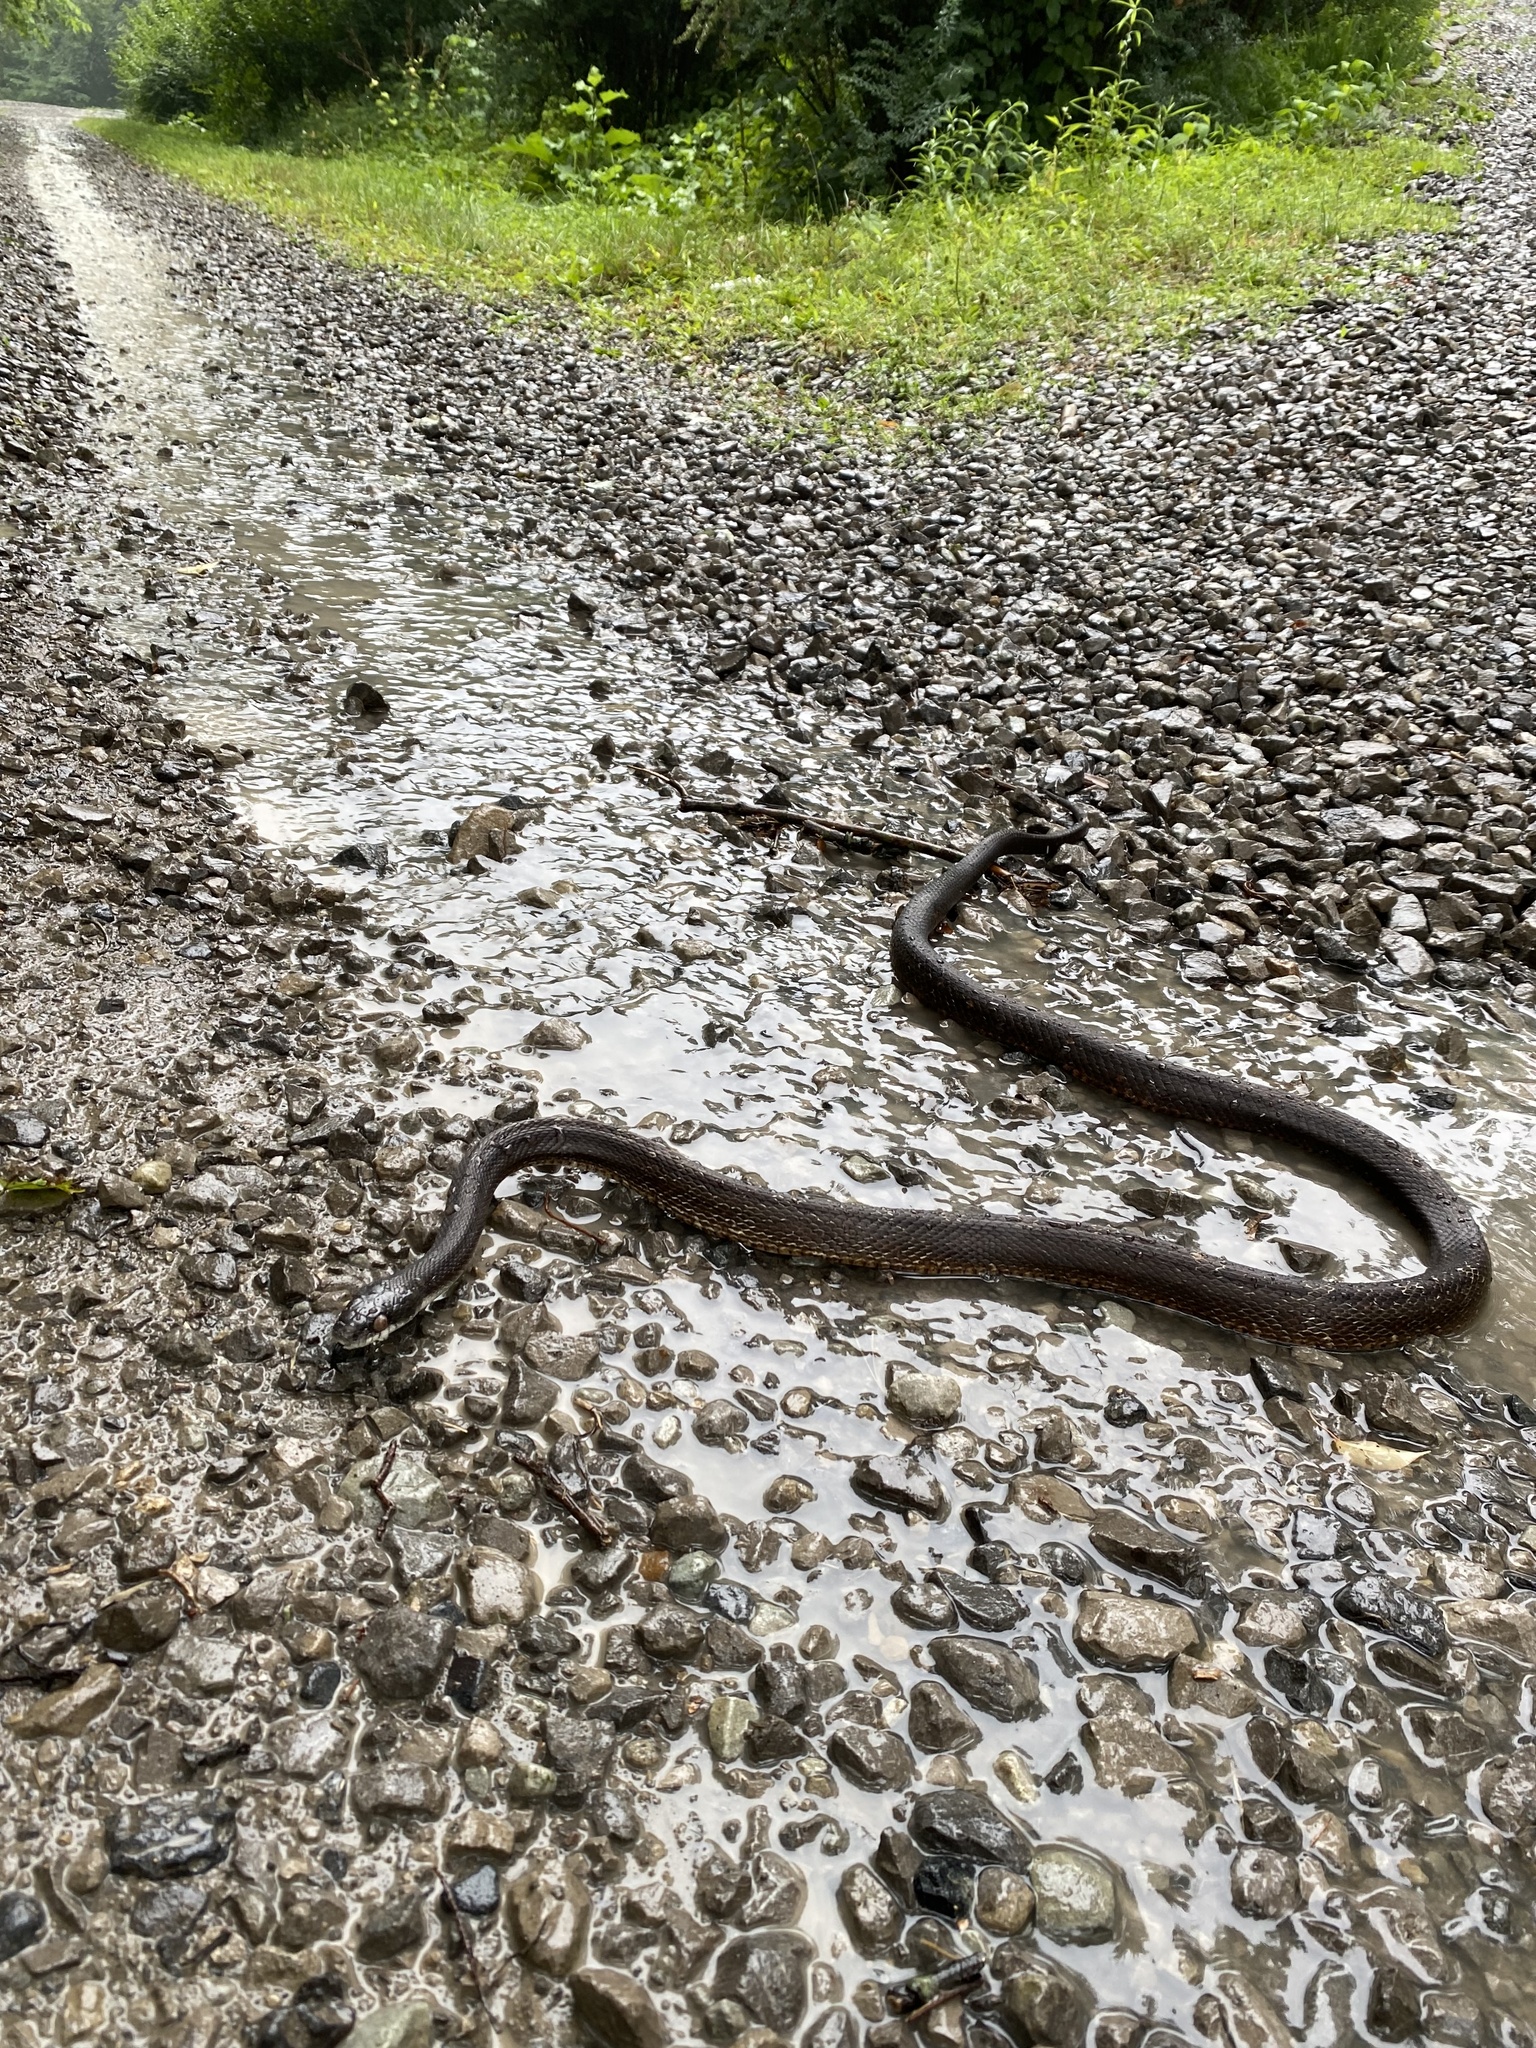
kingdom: Animalia
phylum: Chordata
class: Squamata
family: Colubridae
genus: Pantherophis
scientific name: Pantherophis spiloides
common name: Gray rat snake
